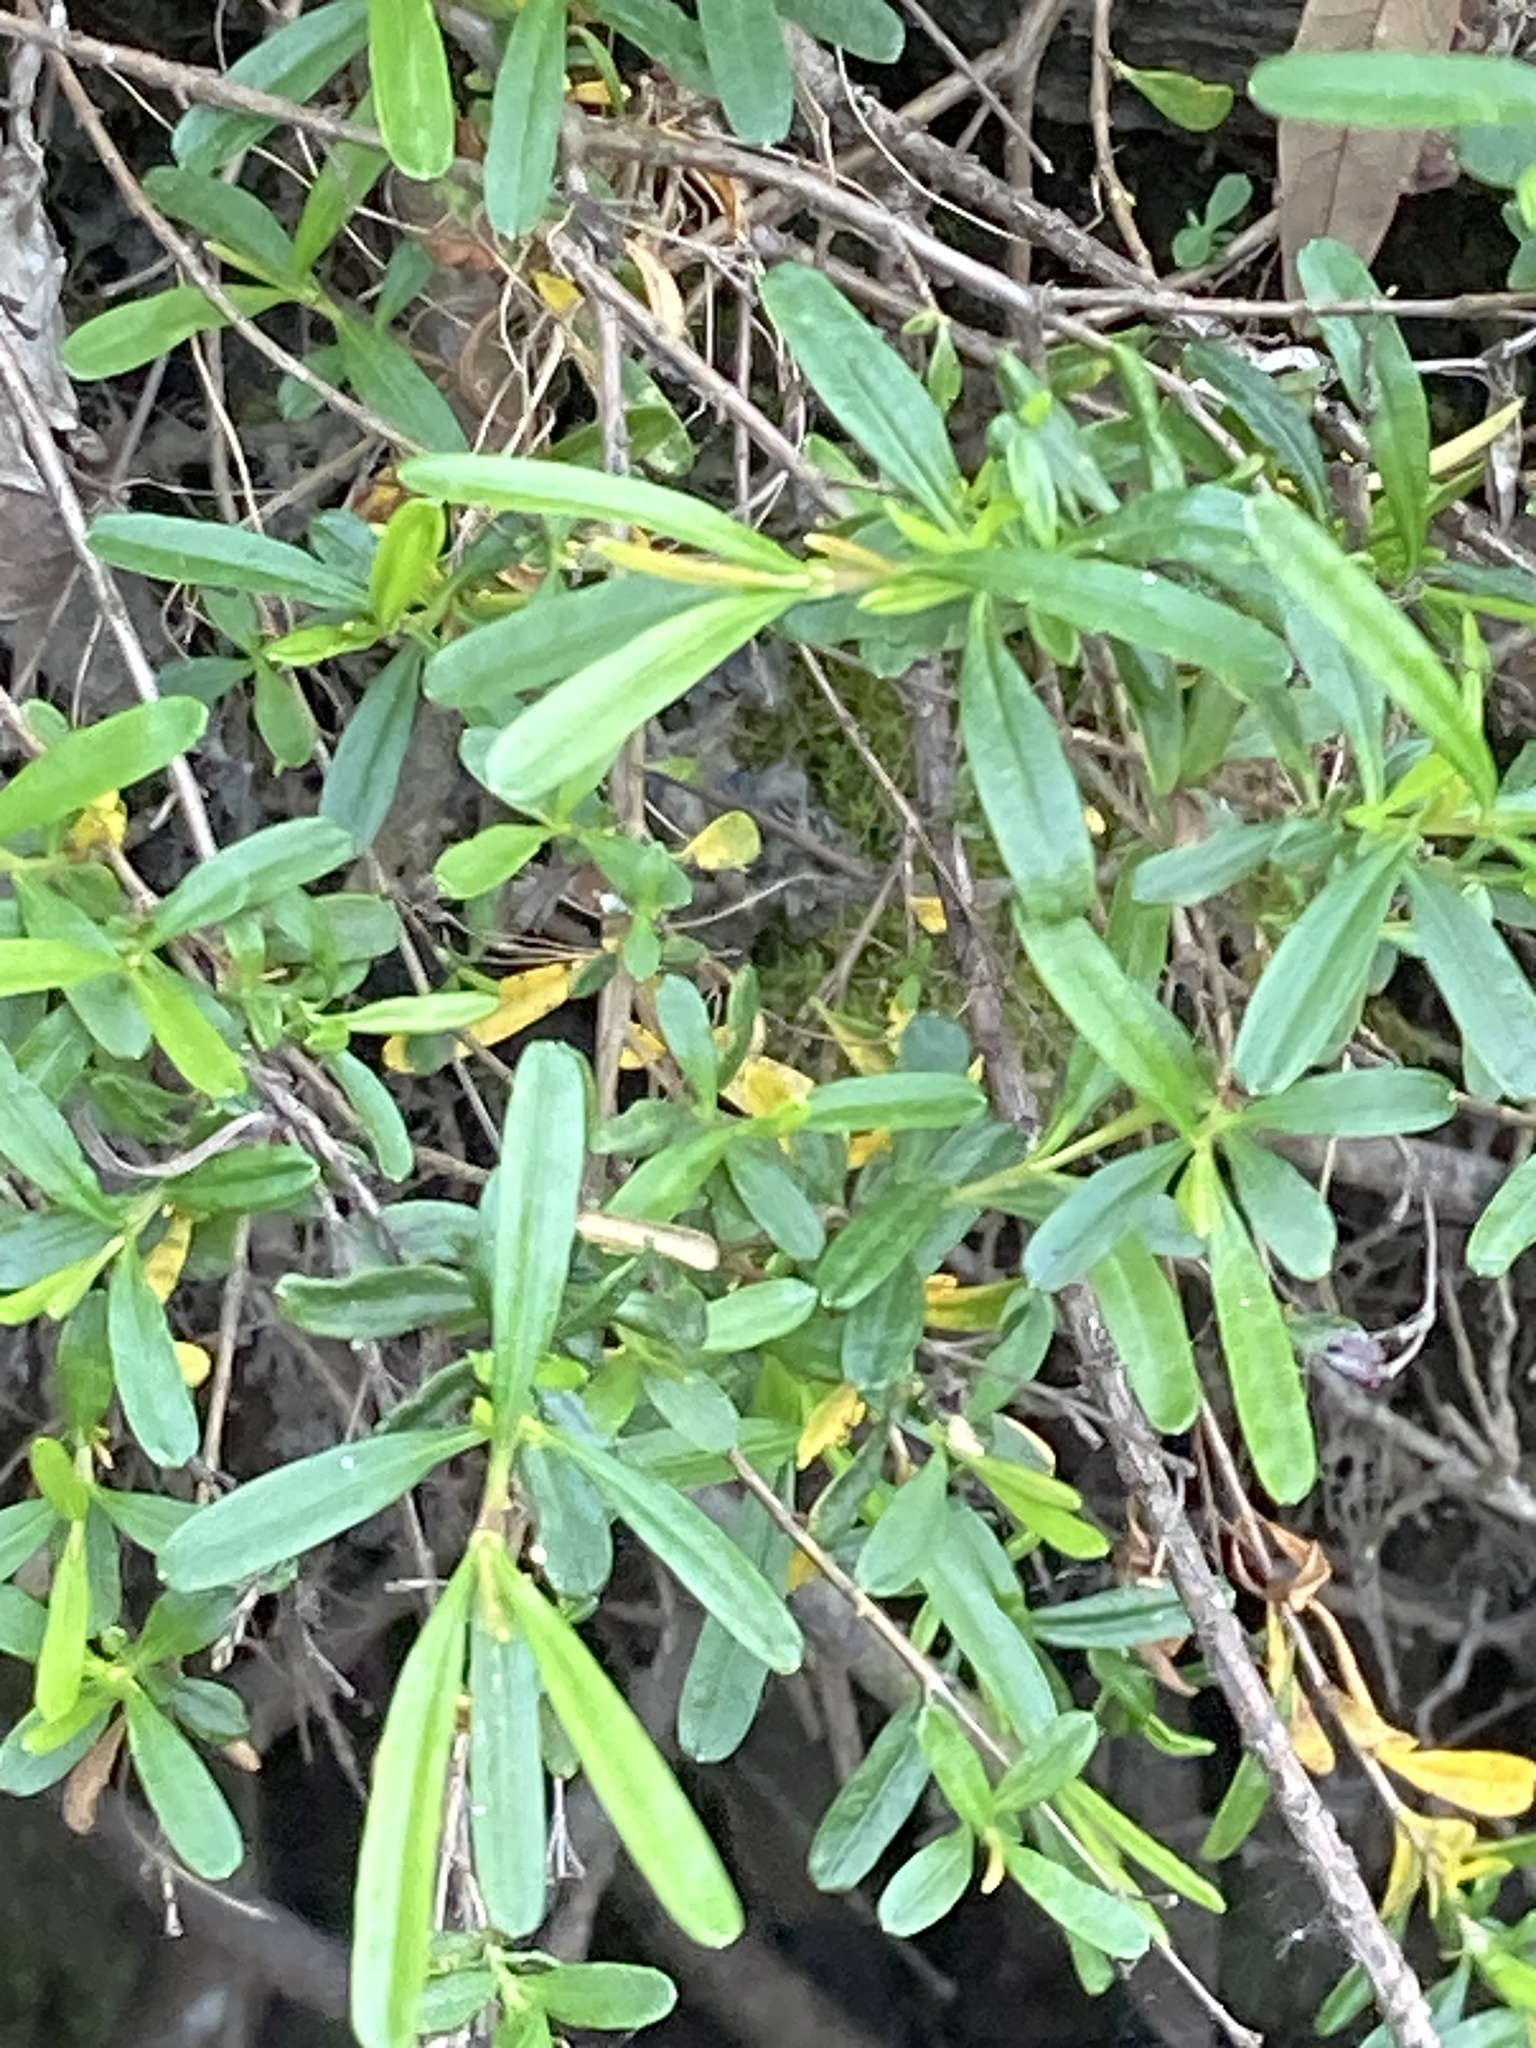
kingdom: Plantae
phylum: Tracheophyta
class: Magnoliopsida
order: Malpighiales
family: Hypericaceae
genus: Hypericum
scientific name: Hypericum galioides
